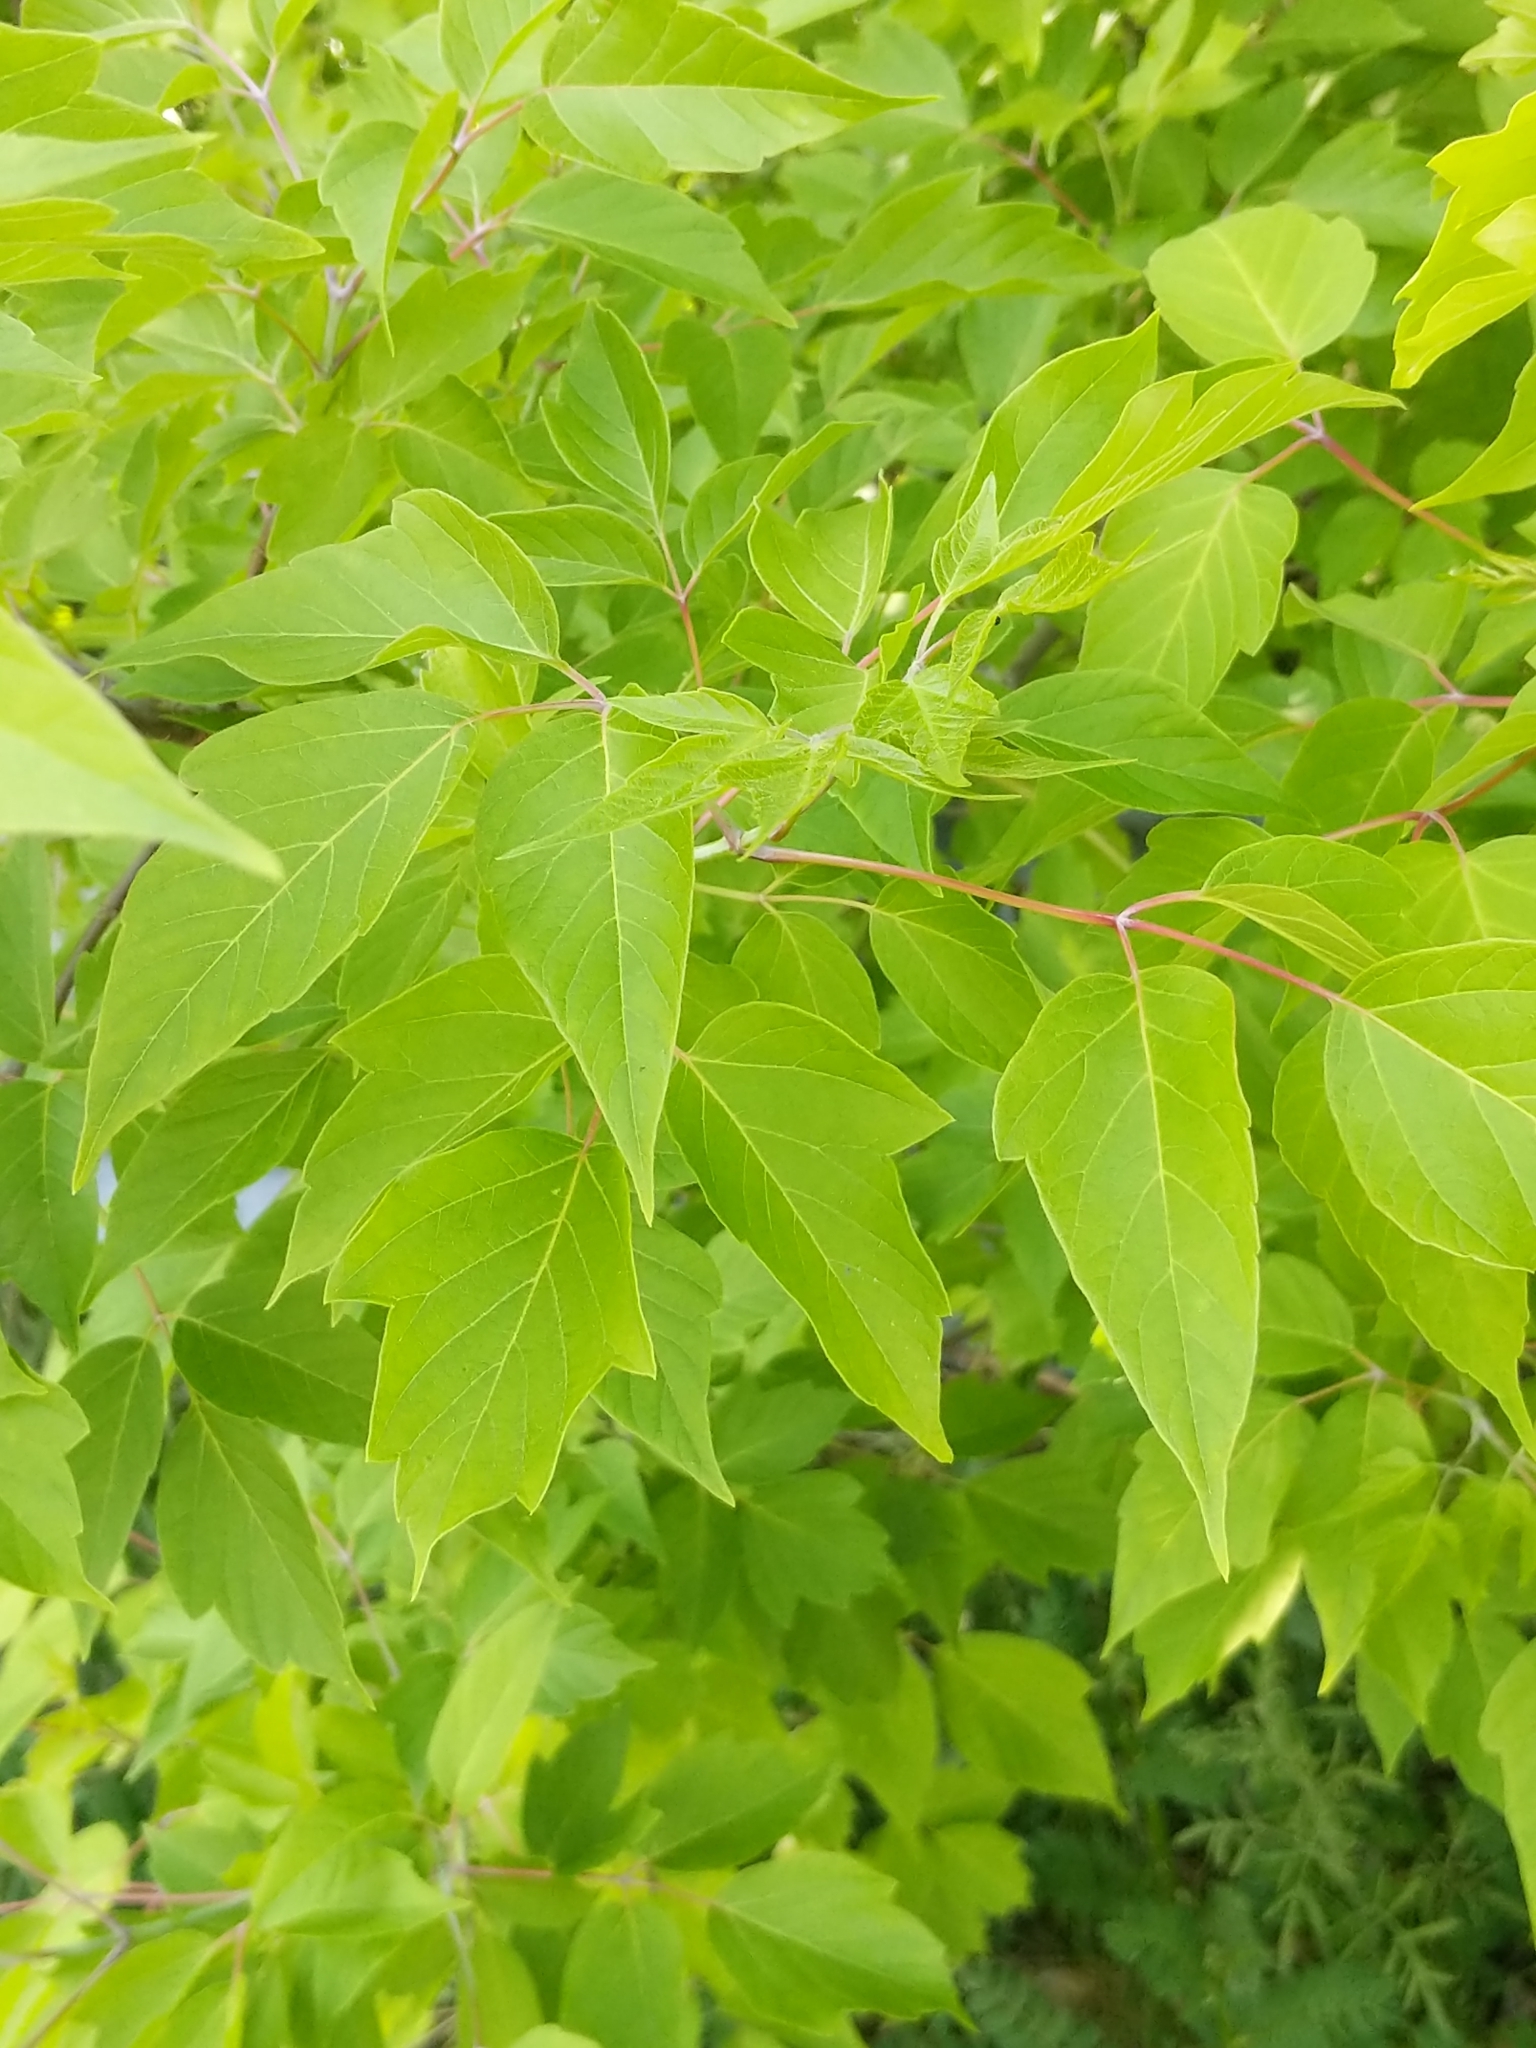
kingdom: Plantae
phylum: Tracheophyta
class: Magnoliopsida
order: Sapindales
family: Sapindaceae
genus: Acer
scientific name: Acer negundo
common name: Ashleaf maple
